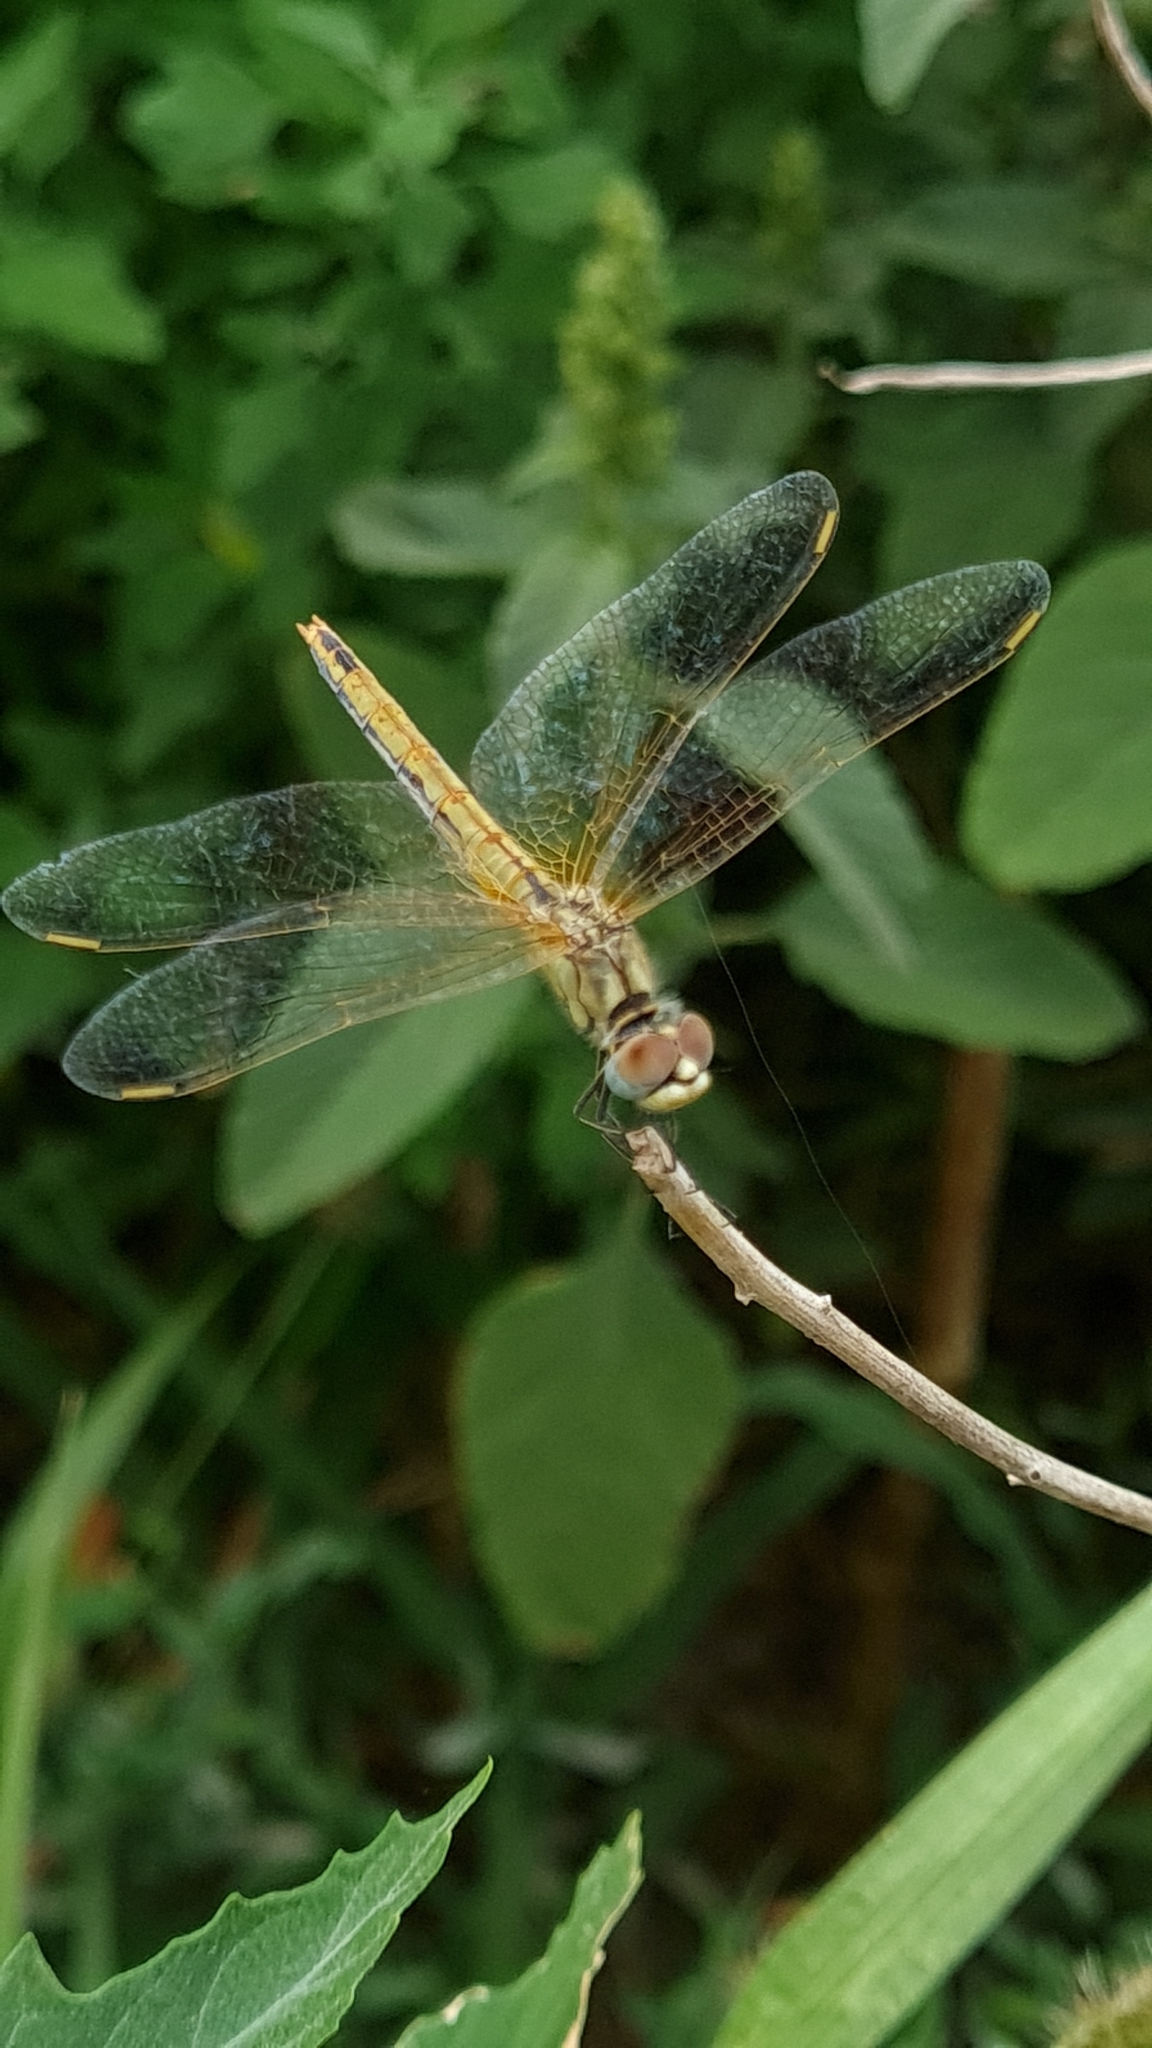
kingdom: Animalia
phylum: Arthropoda
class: Insecta
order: Odonata
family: Libellulidae
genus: Sympetrum
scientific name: Sympetrum fonscolombii
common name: Red-veined darter
